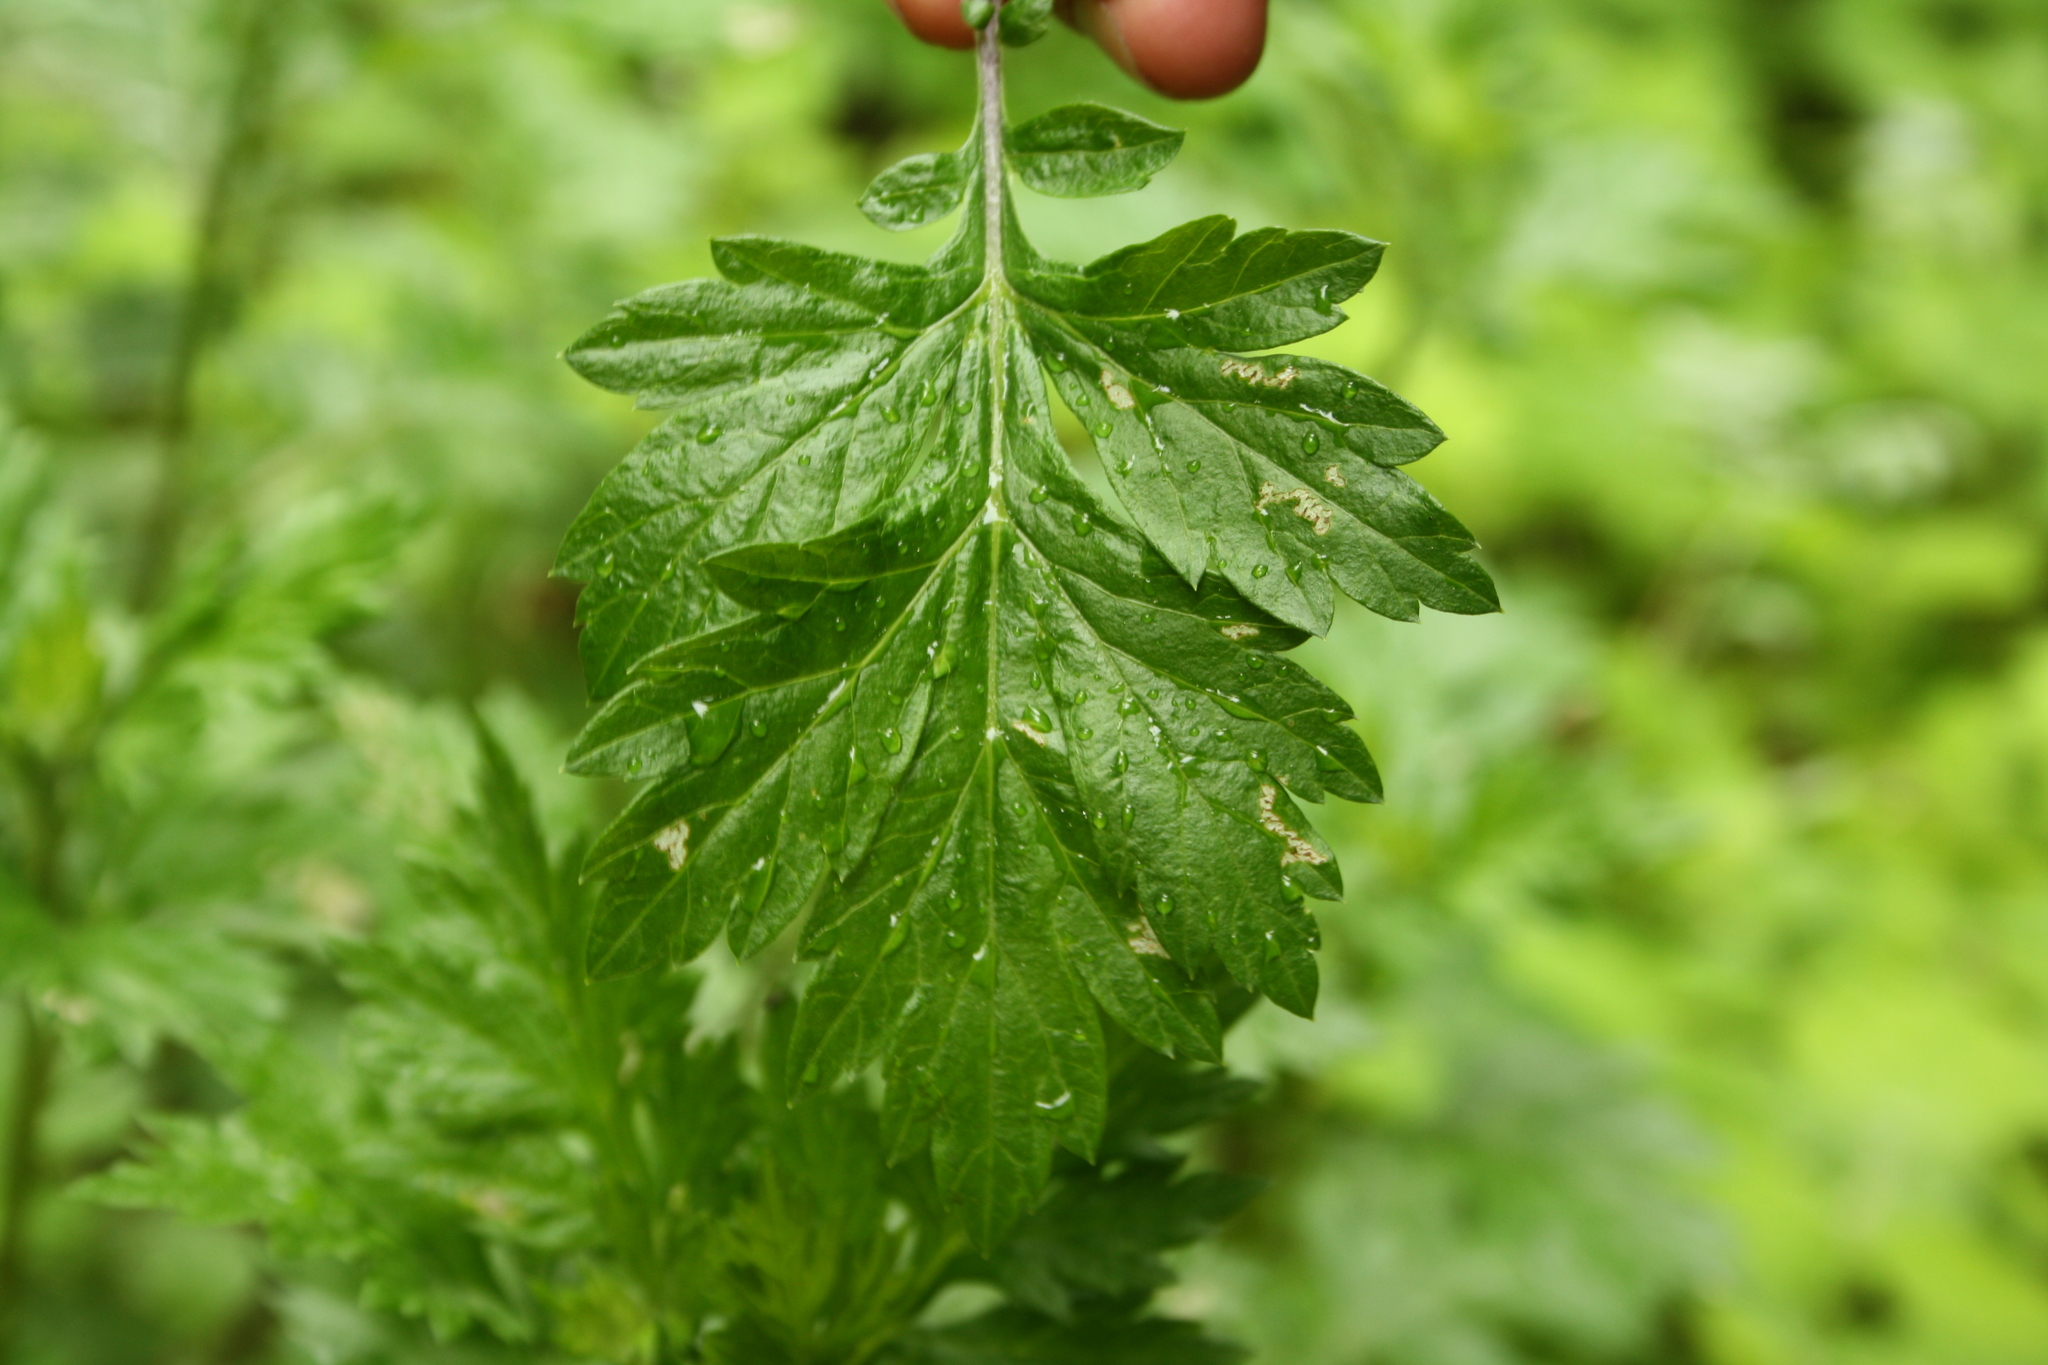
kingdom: Plantae
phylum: Tracheophyta
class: Magnoliopsida
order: Asterales
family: Asteraceae
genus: Artemisia
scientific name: Artemisia vulgaris
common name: Mugwort
